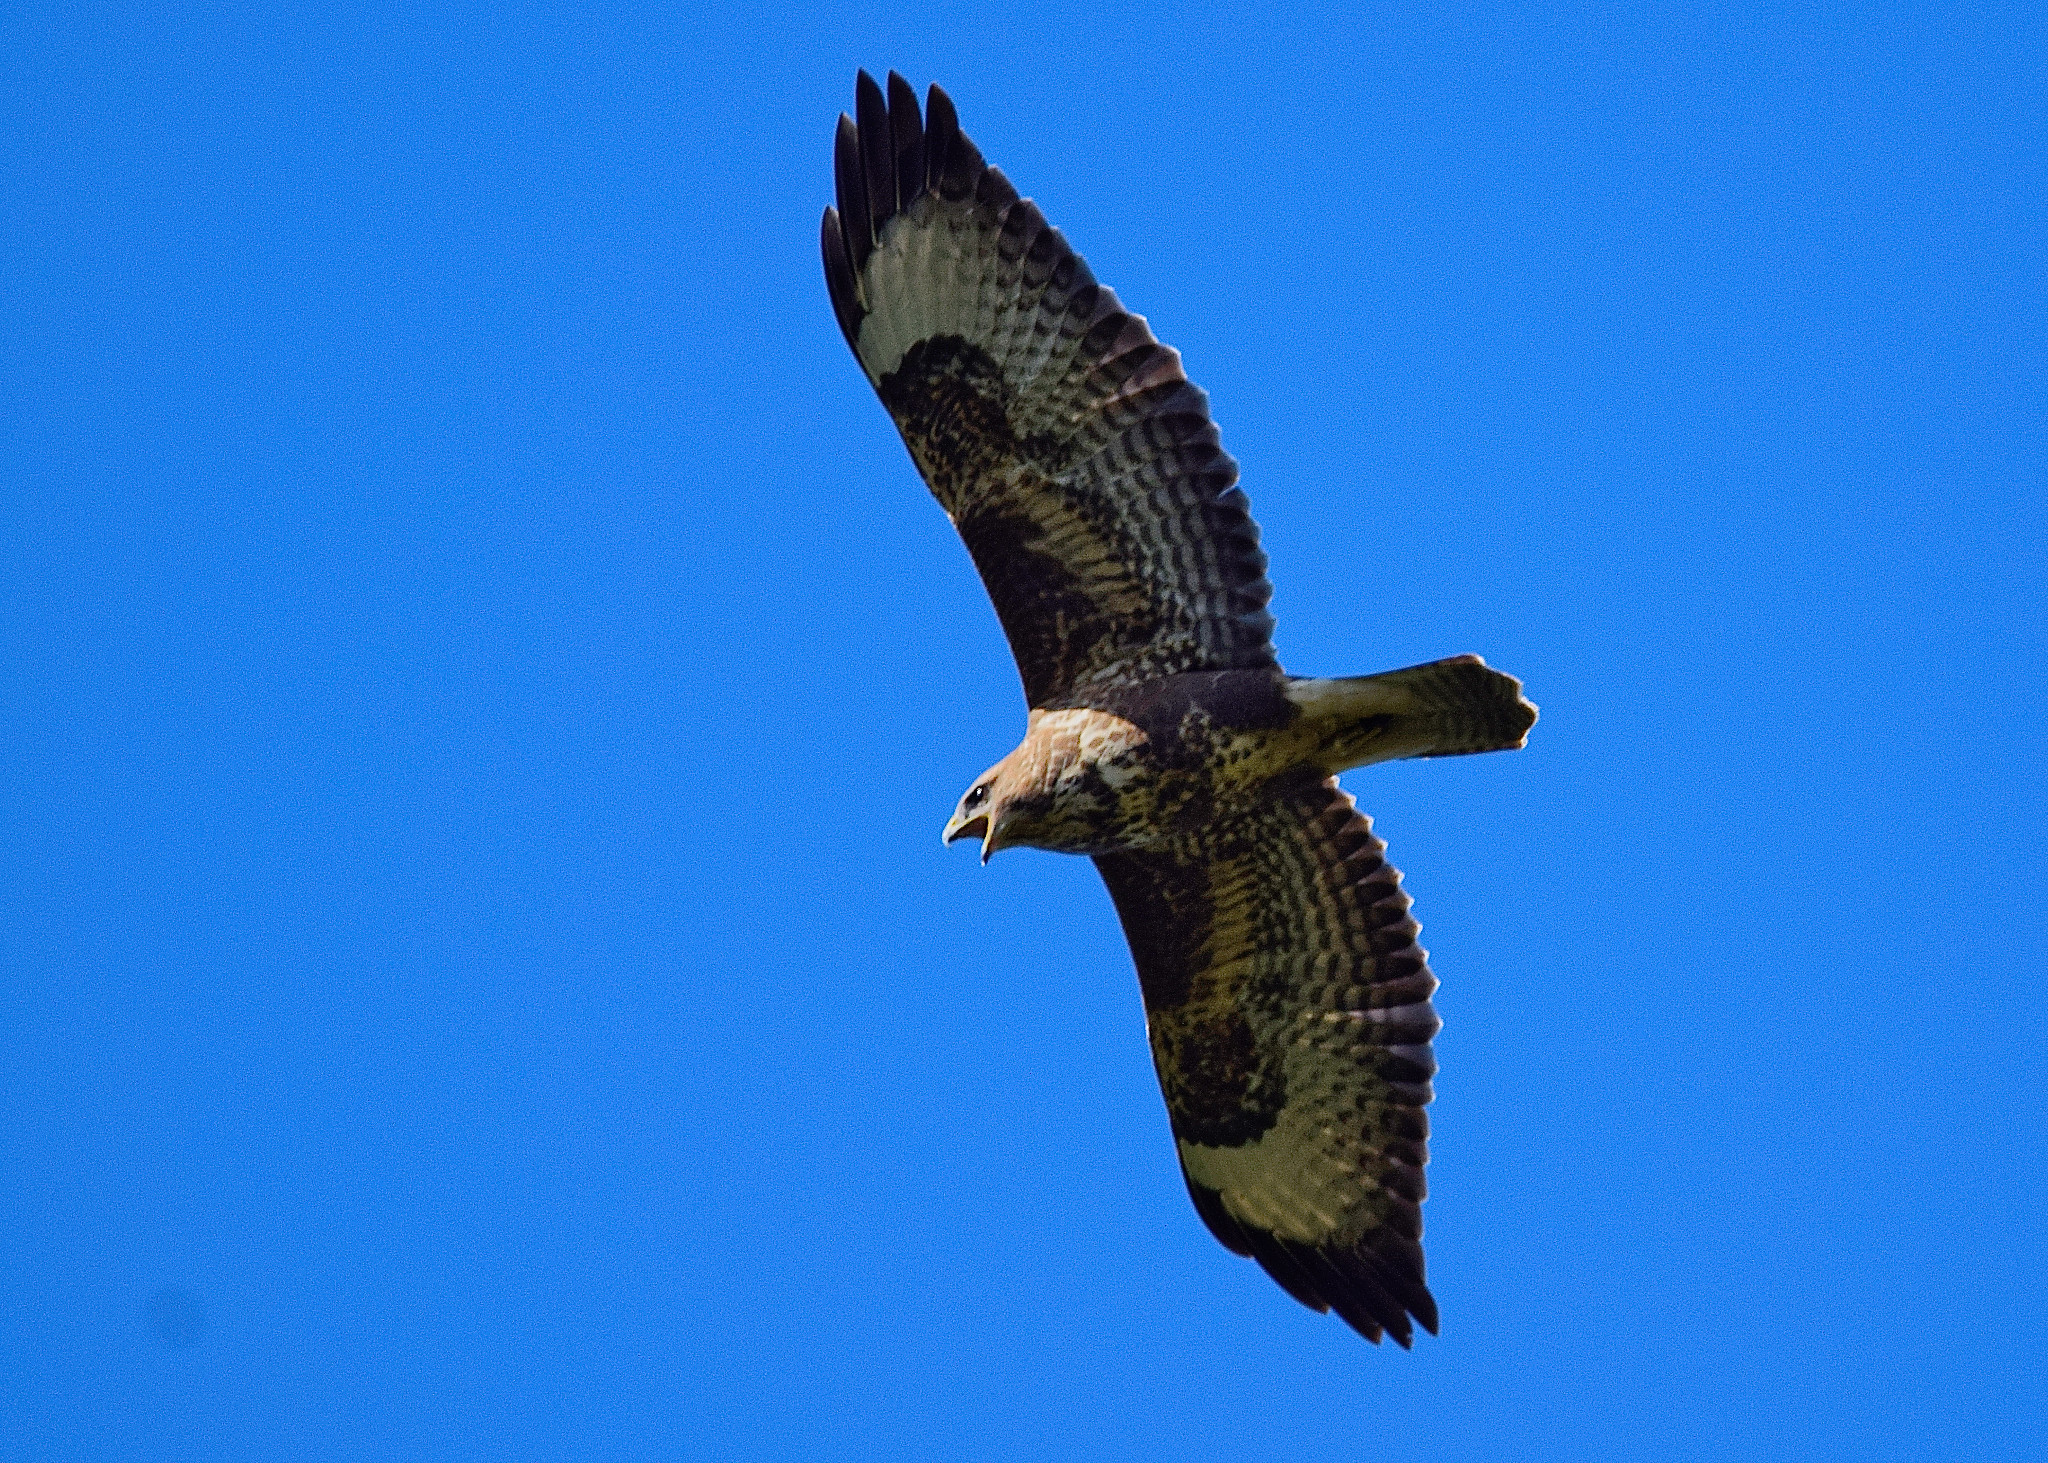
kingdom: Animalia
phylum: Chordata
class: Aves
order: Accipitriformes
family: Accipitridae
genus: Buteo
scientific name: Buteo buteo
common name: Common buzzard
